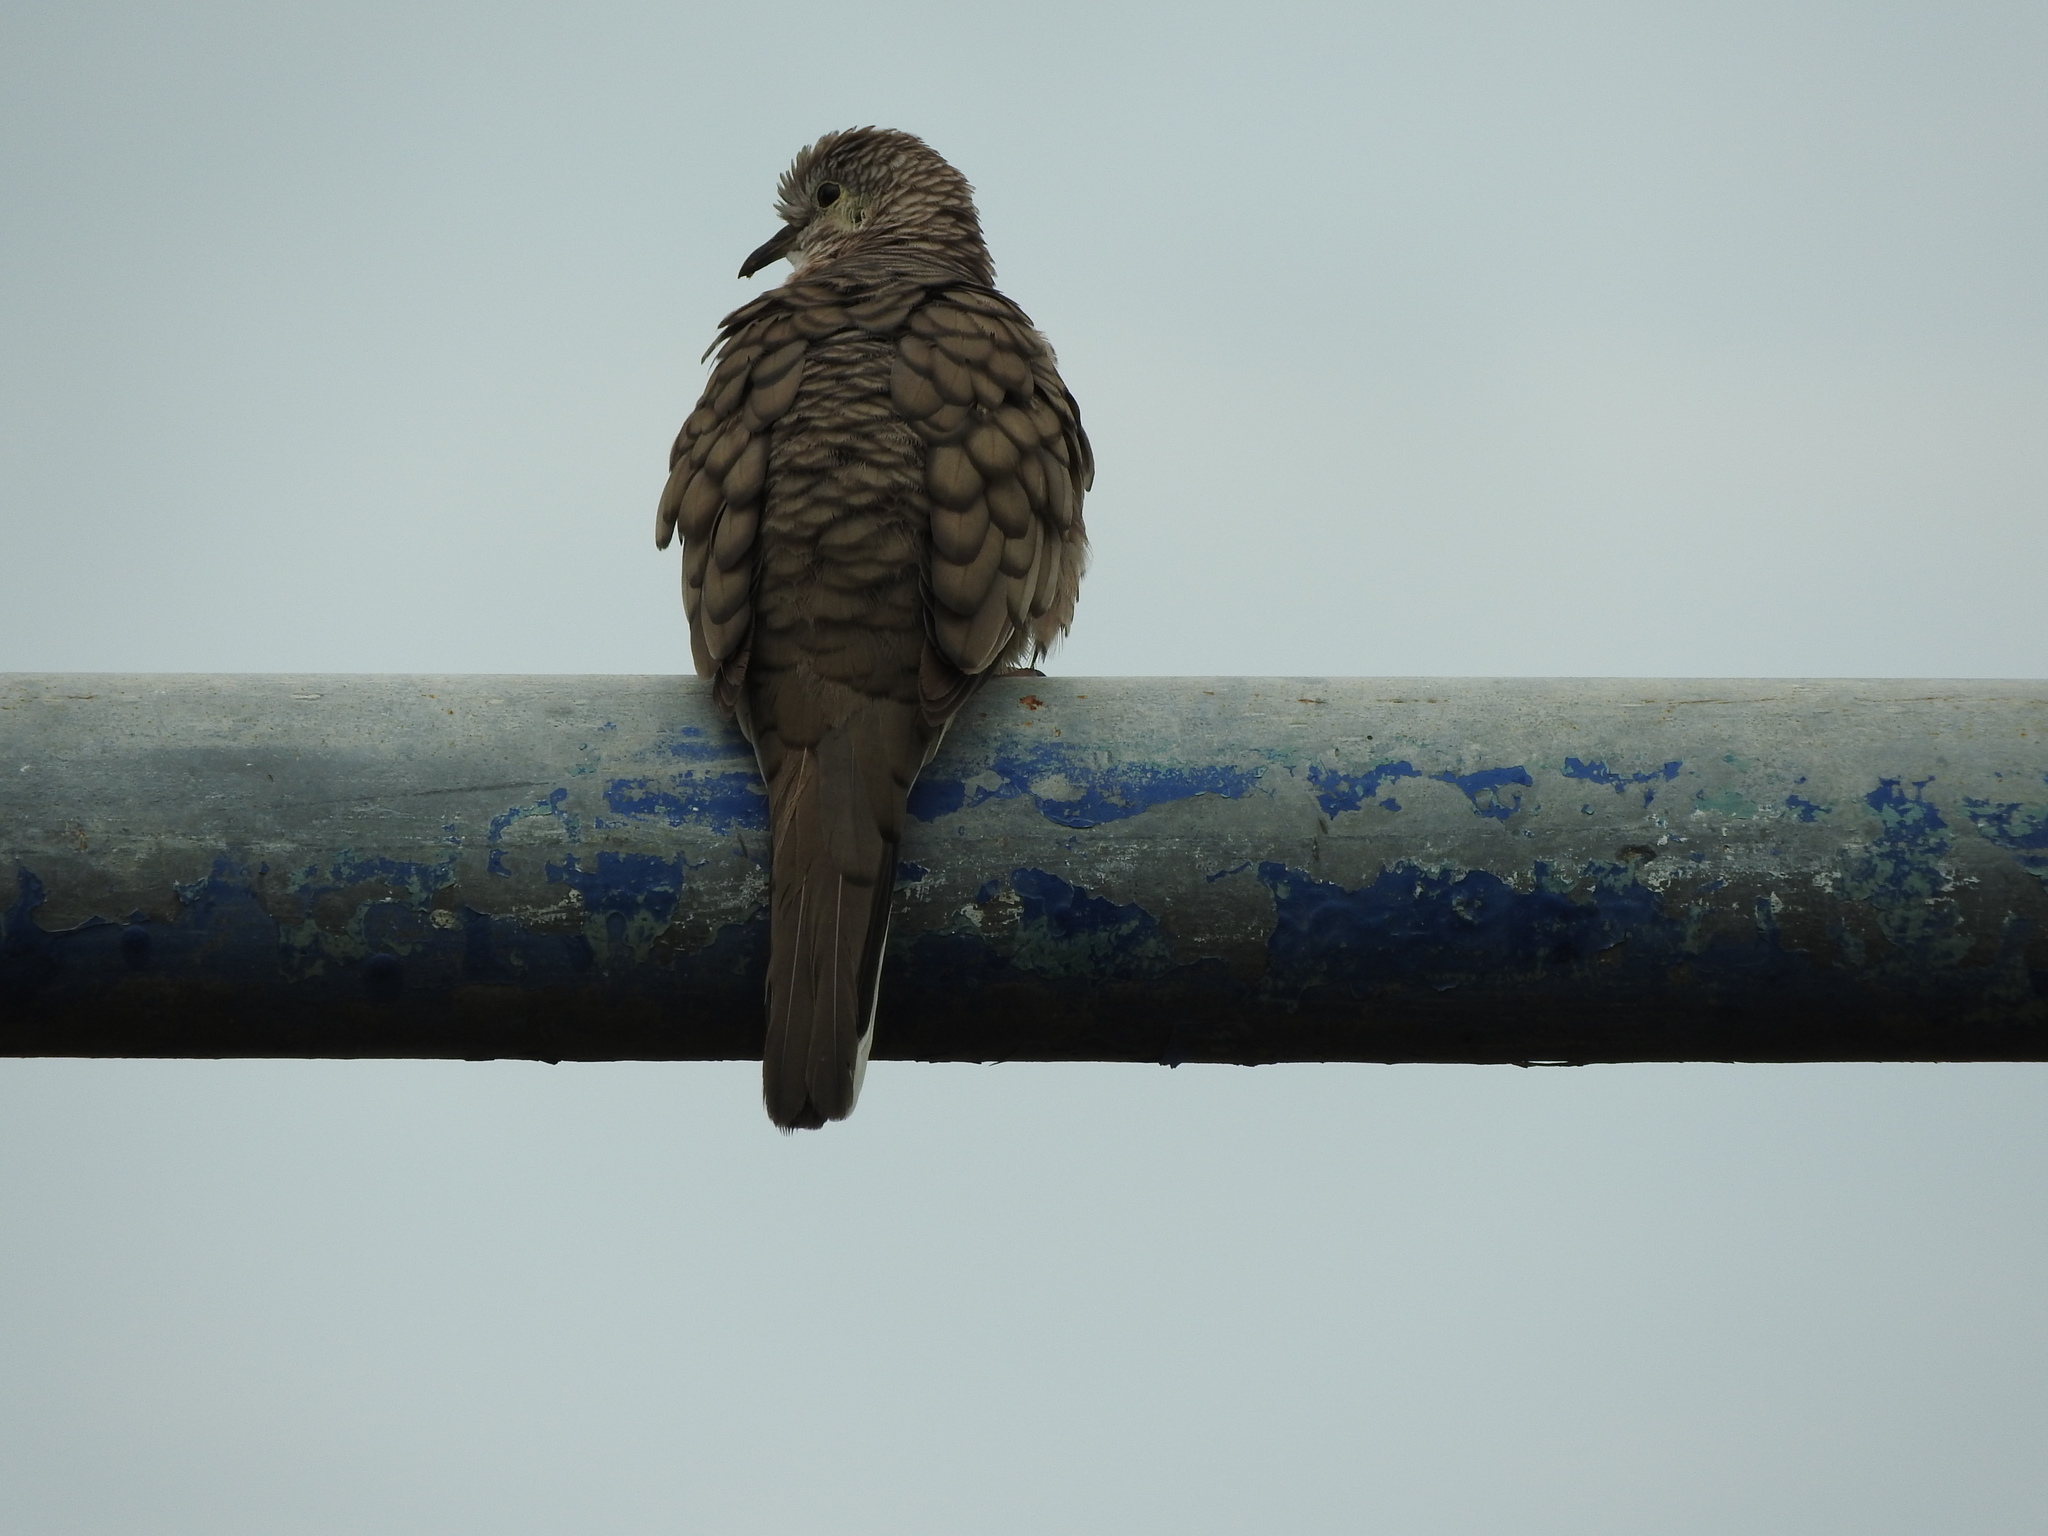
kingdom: Animalia
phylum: Chordata
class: Aves
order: Columbiformes
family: Columbidae
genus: Columbina
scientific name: Columbina inca
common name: Inca dove
